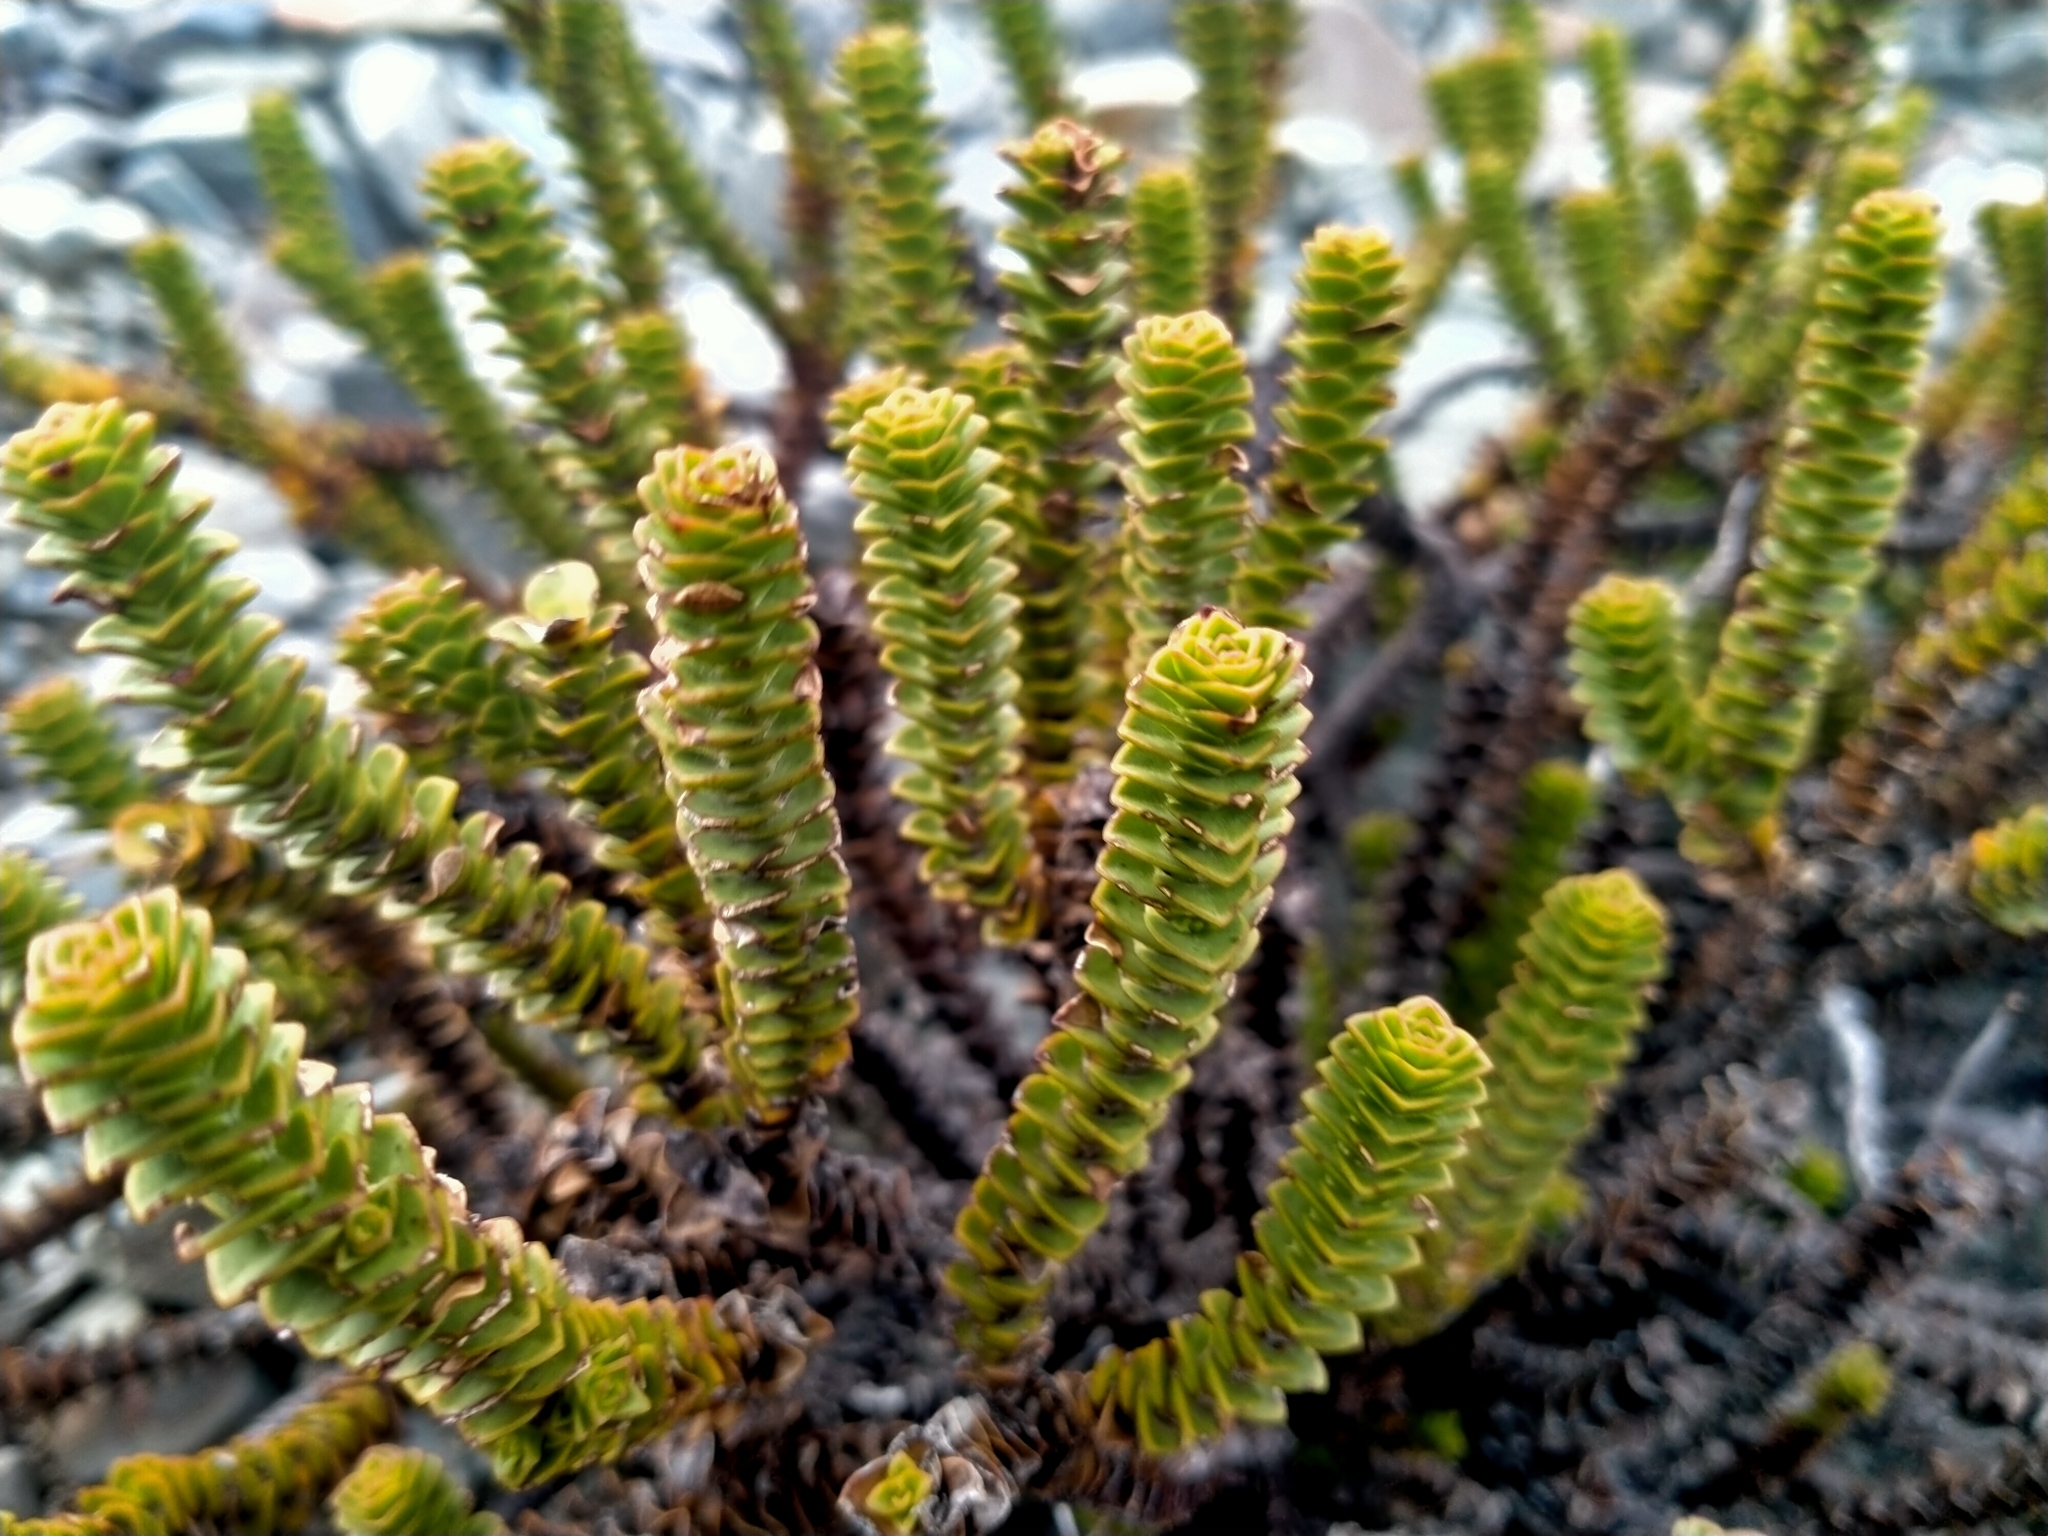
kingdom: Plantae
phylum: Tracheophyta
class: Magnoliopsida
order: Lamiales
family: Plantaginaceae
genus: Veronica
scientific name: Veronica epacridea
